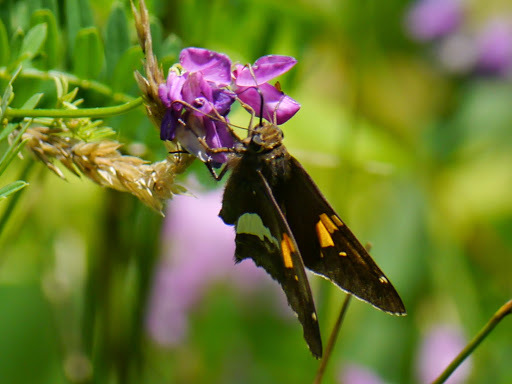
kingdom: Animalia
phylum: Arthropoda
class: Insecta
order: Lepidoptera
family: Hesperiidae
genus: Epargyreus
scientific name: Epargyreus clarus
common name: Silver-spotted skipper
